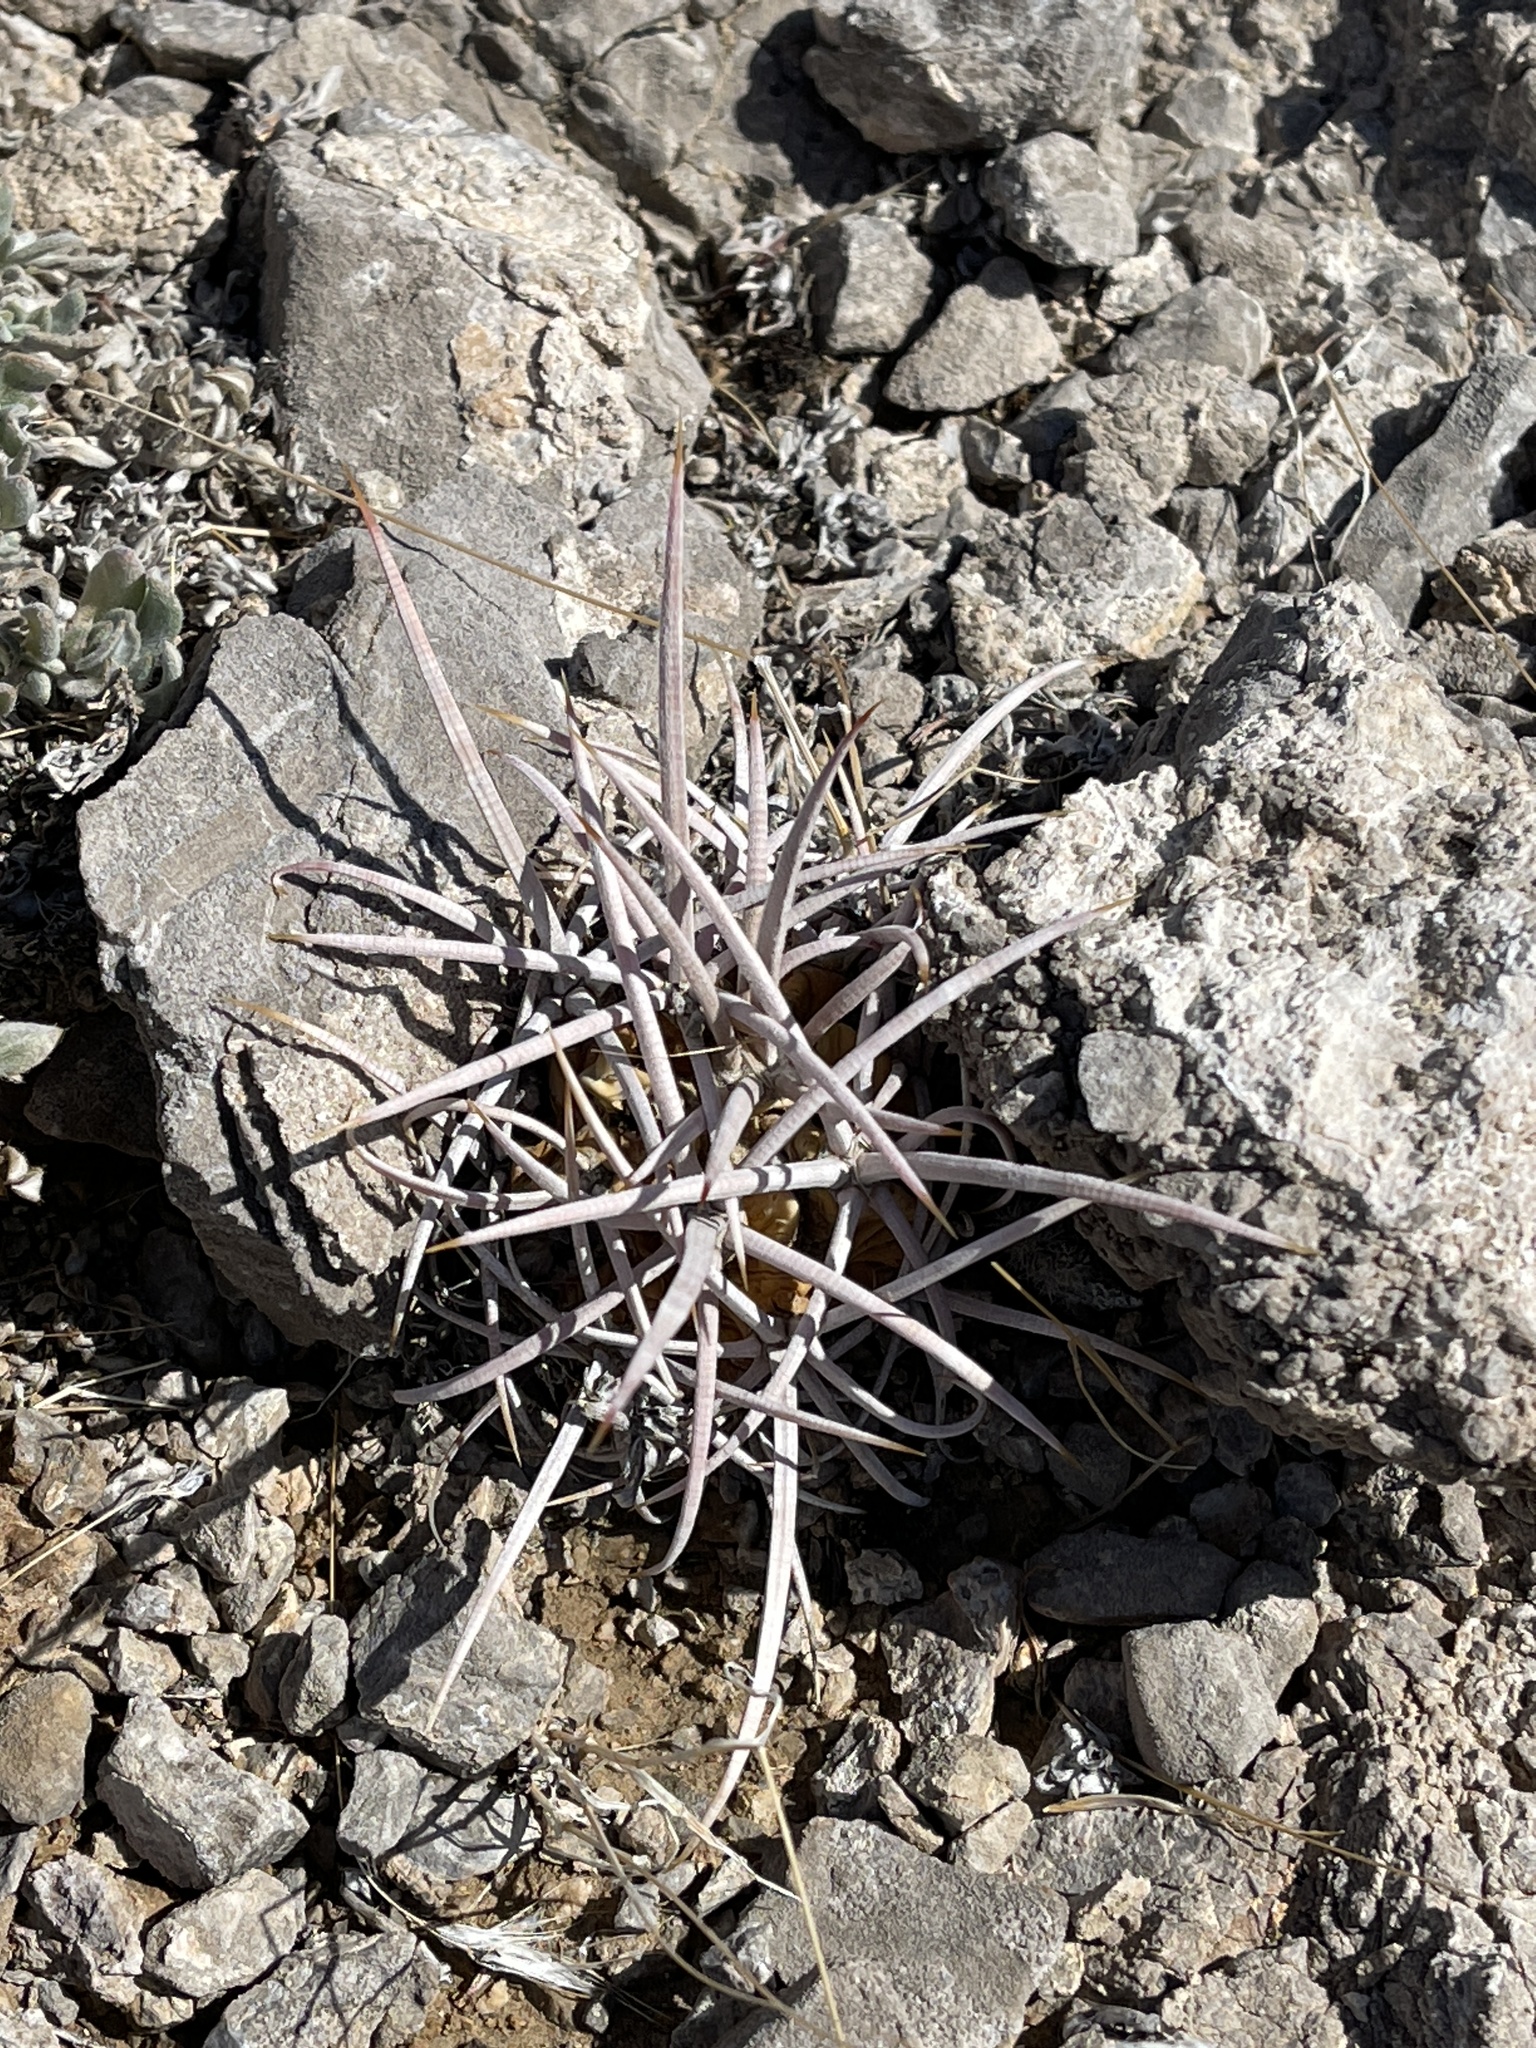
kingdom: Plantae
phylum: Tracheophyta
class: Magnoliopsida
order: Caryophyllales
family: Cactaceae
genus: Echinocactus
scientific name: Echinocactus polycephalus
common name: Cottontop cactus
